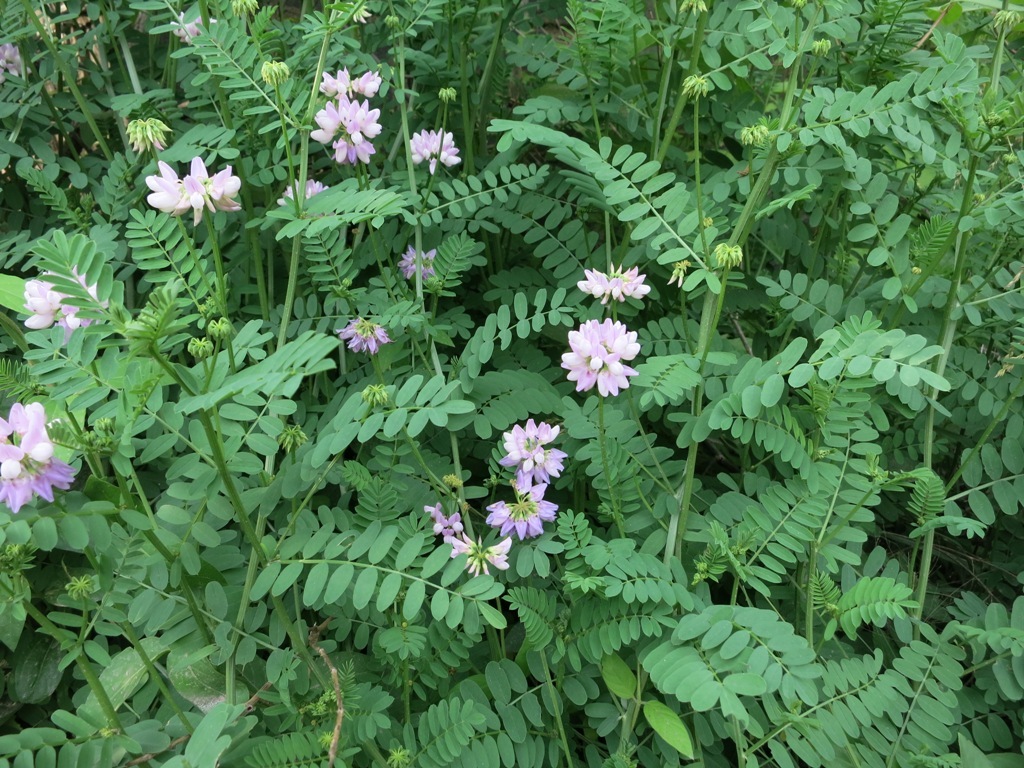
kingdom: Plantae
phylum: Tracheophyta
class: Magnoliopsida
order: Fabales
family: Fabaceae
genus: Coronilla
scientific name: Coronilla varia
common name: Crownvetch
